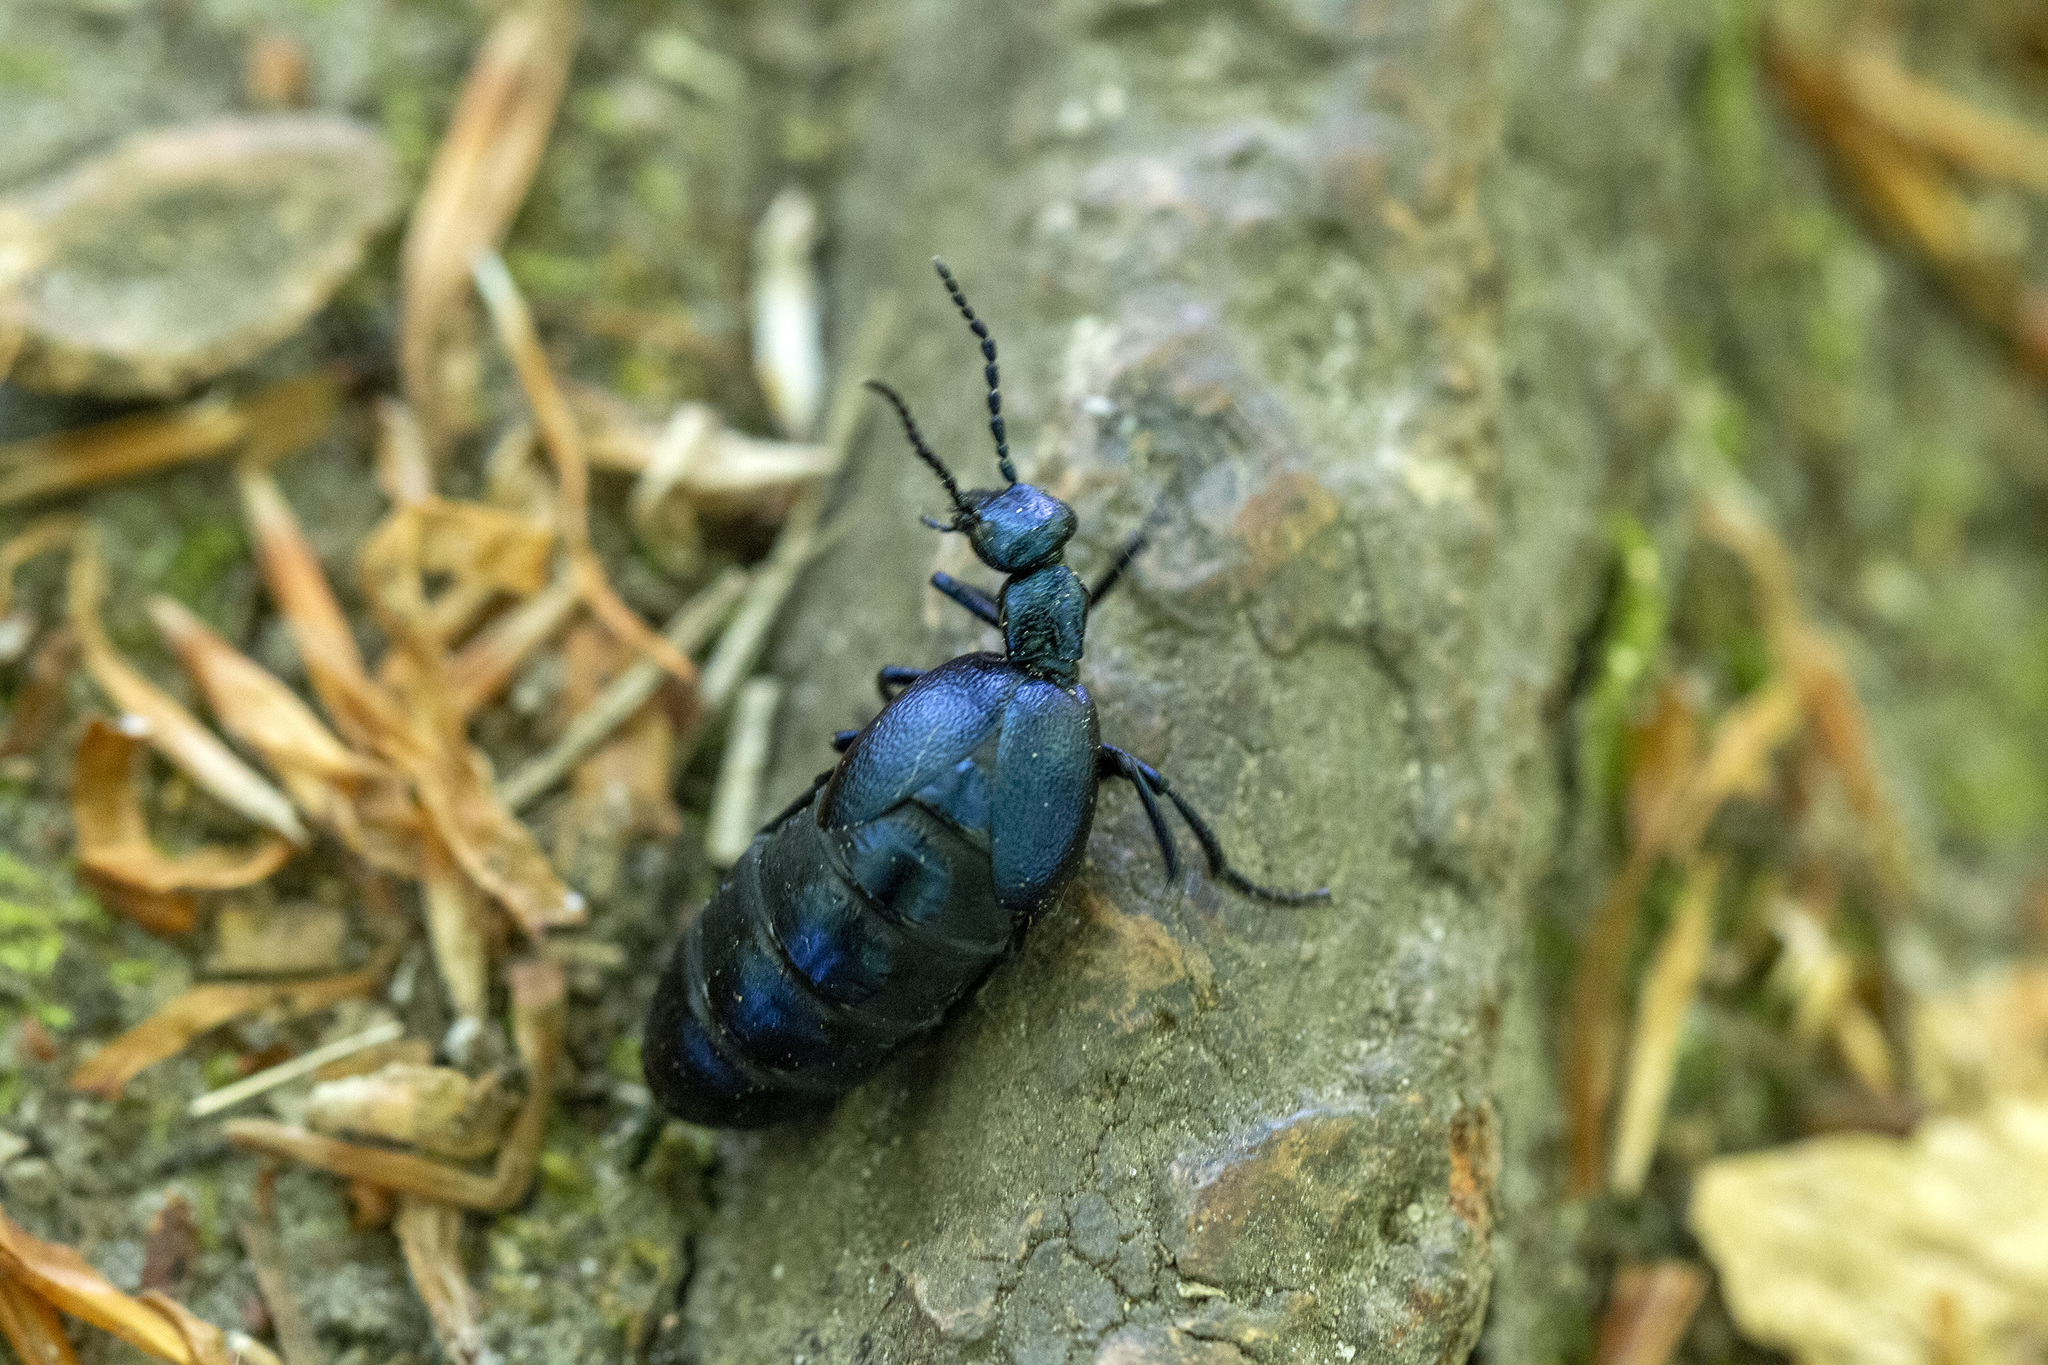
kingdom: Animalia
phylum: Arthropoda
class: Insecta
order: Coleoptera
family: Meloidae
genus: Meloe
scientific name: Meloe violaceus
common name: Violet oil-beetle
